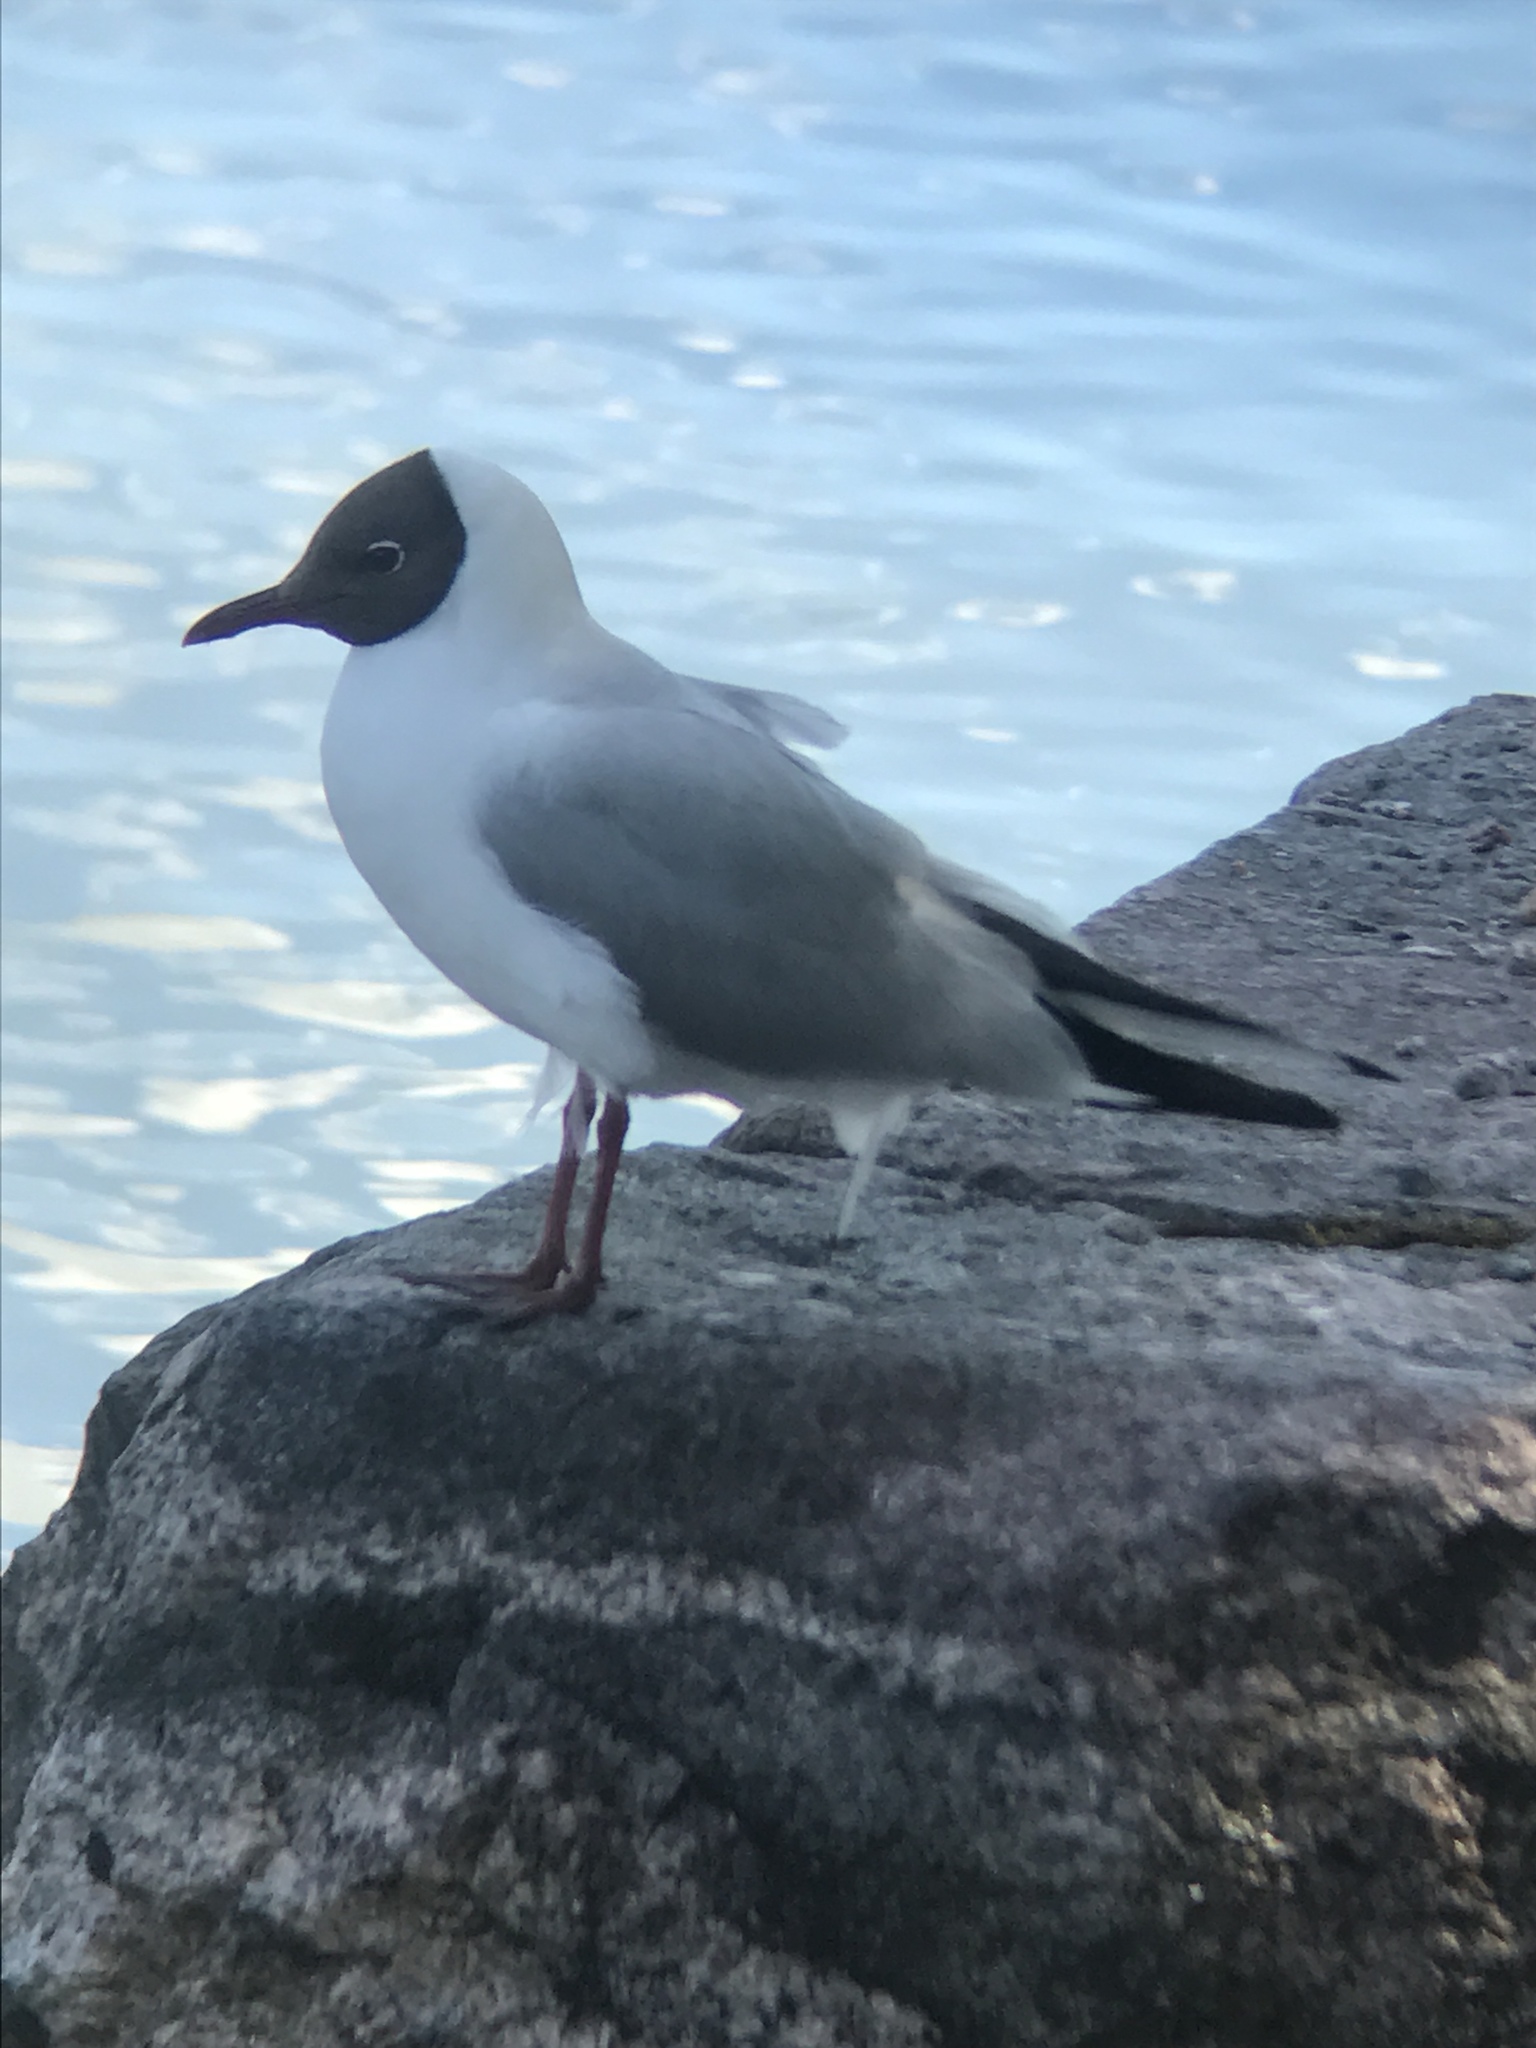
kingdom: Animalia
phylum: Chordata
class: Aves
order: Charadriiformes
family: Laridae
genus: Chroicocephalus
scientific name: Chroicocephalus ridibundus
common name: Black-headed gull
